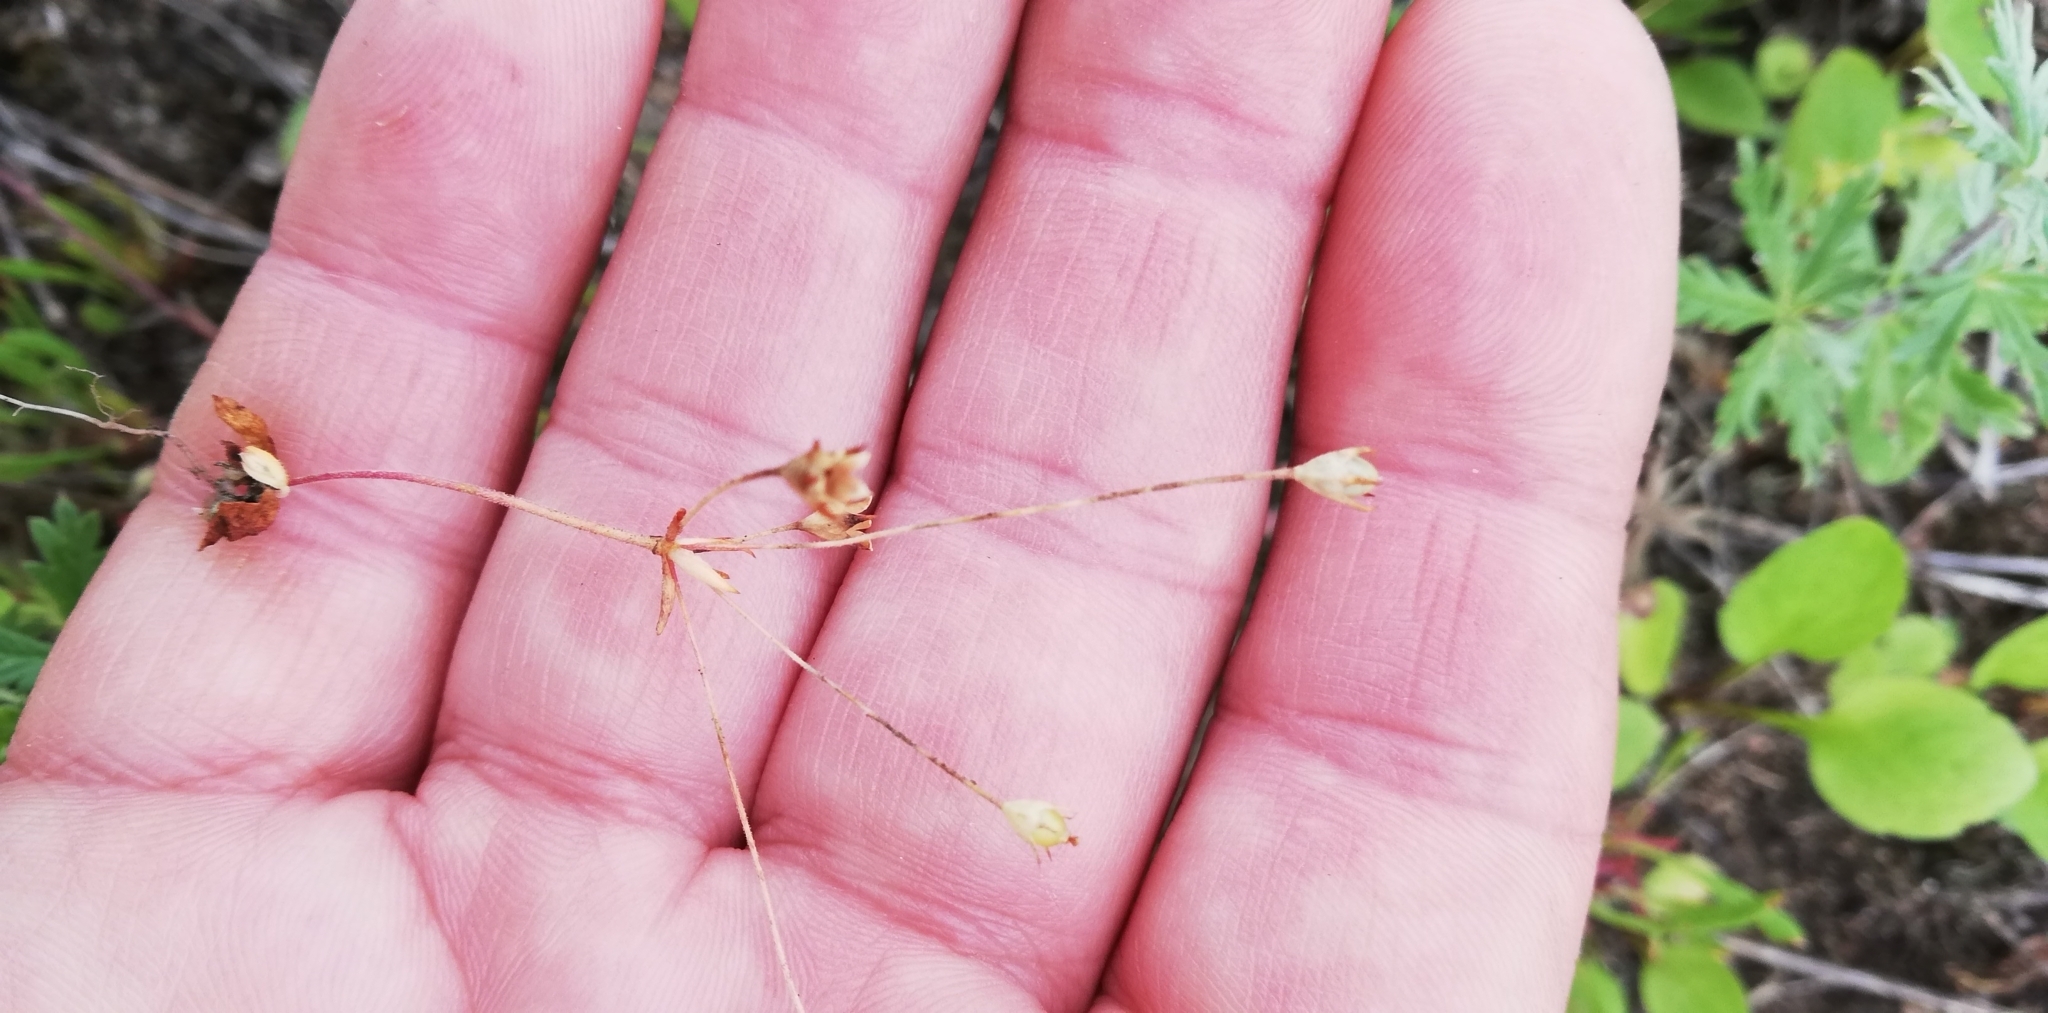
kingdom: Plantae
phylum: Tracheophyta
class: Magnoliopsida
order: Ericales
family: Primulaceae
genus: Androsace
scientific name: Androsace septentrionalis
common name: Hairy northern fairy-candelabra
